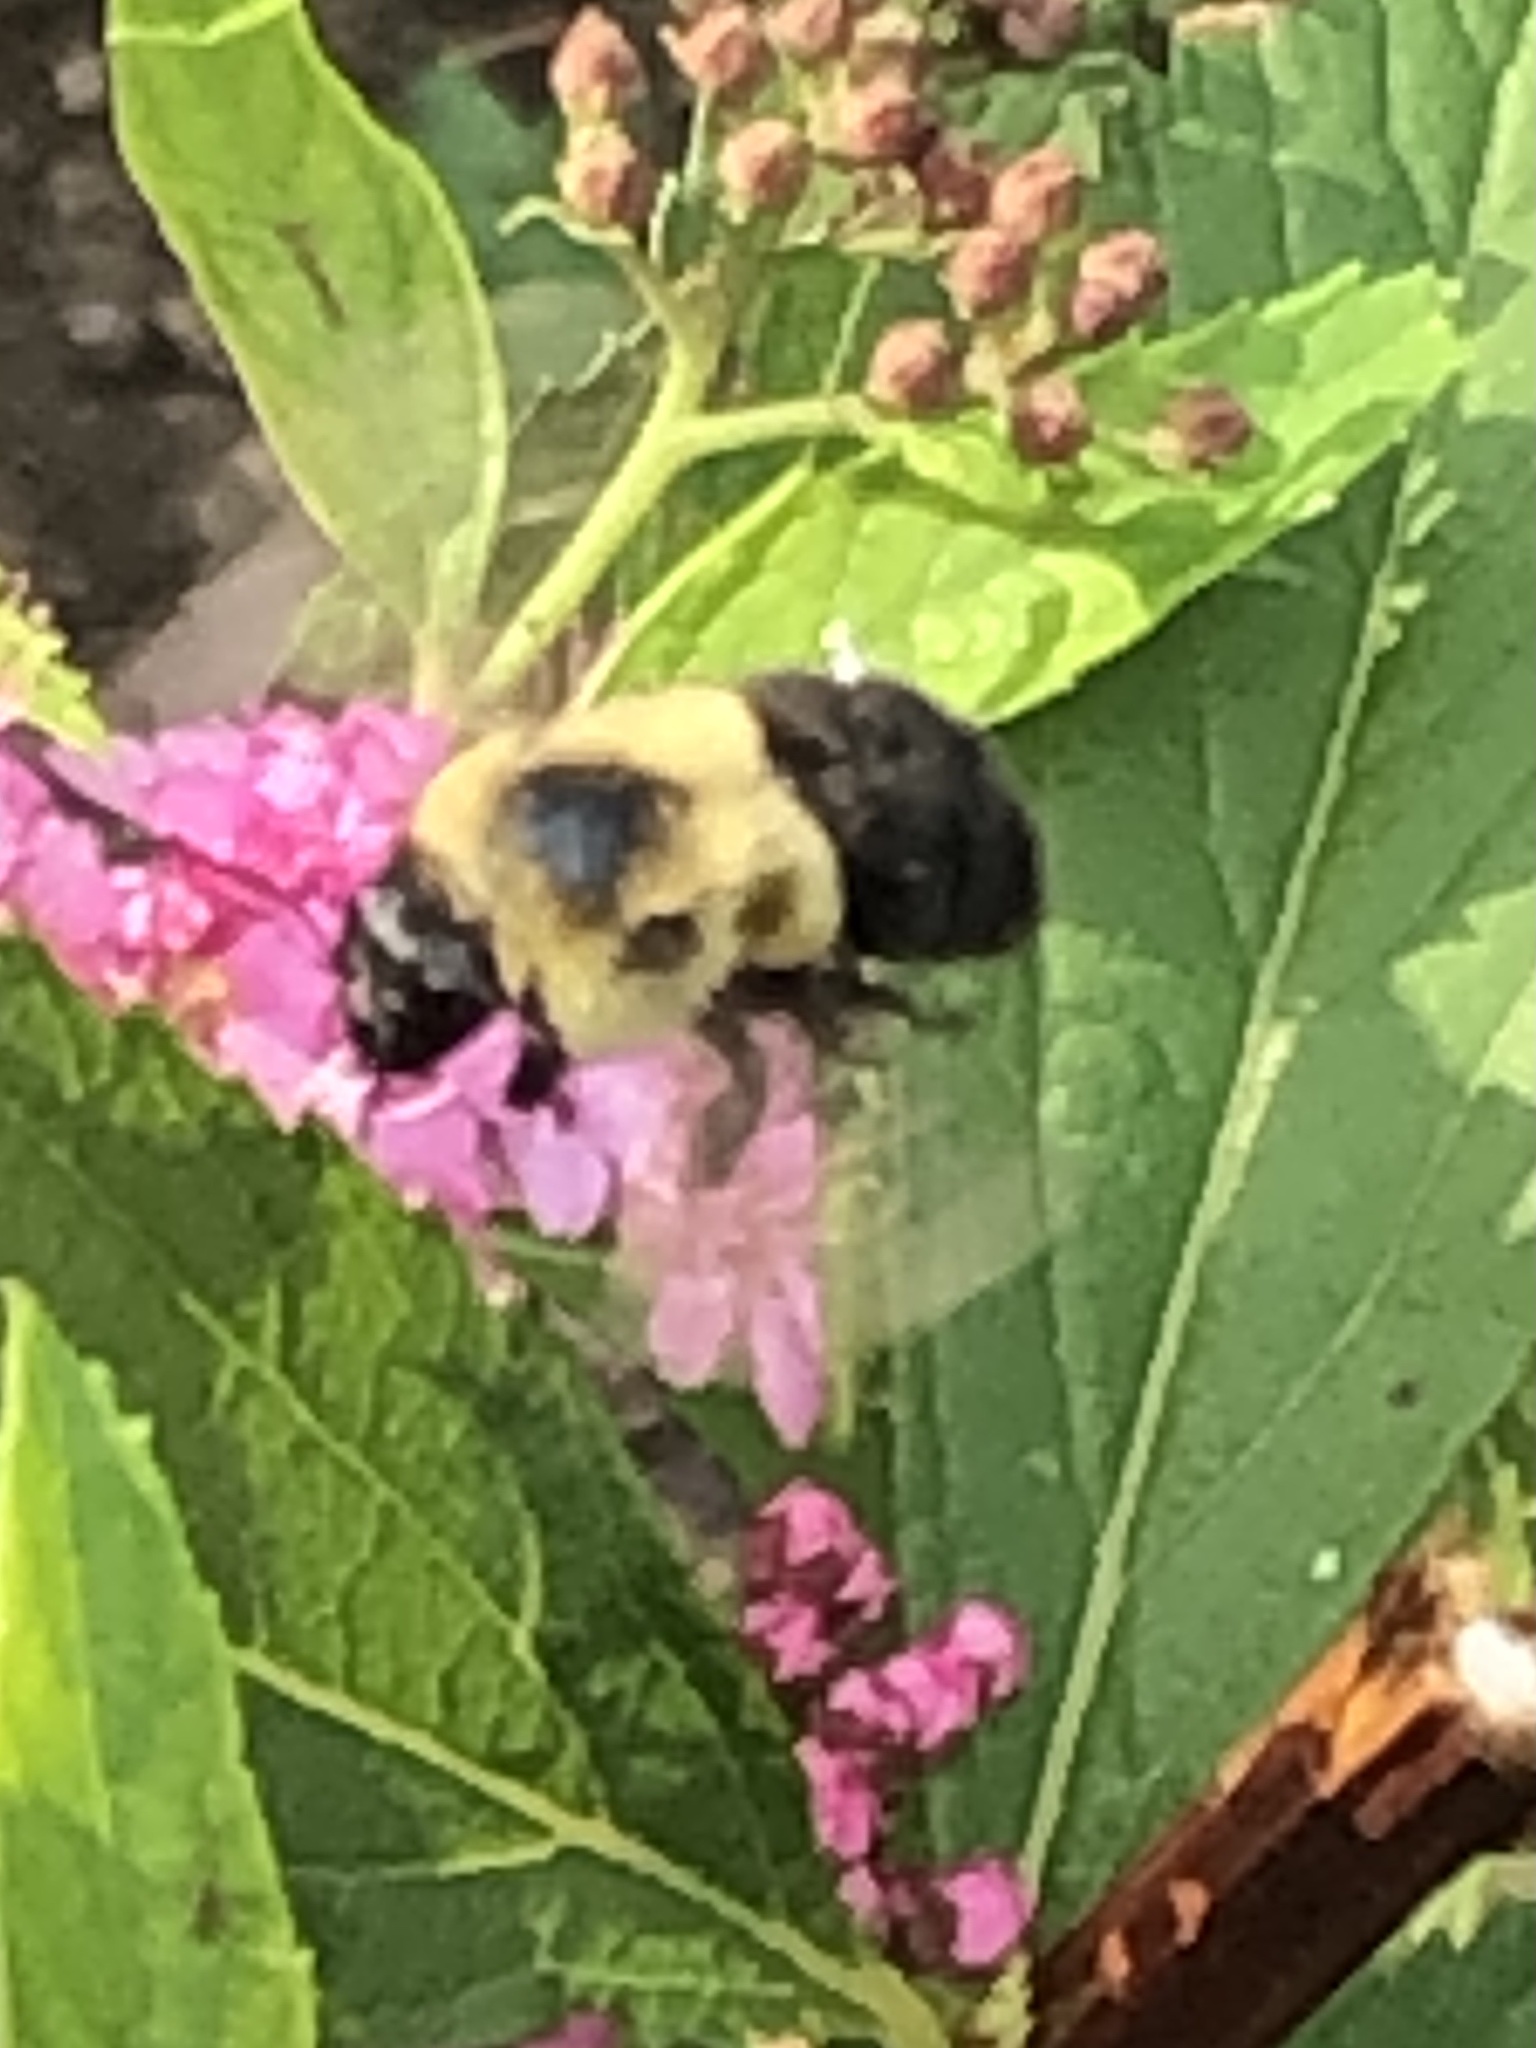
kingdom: Animalia
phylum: Arthropoda
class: Insecta
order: Hymenoptera
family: Apidae
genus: Bombus
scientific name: Bombus impatiens
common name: Common eastern bumble bee
